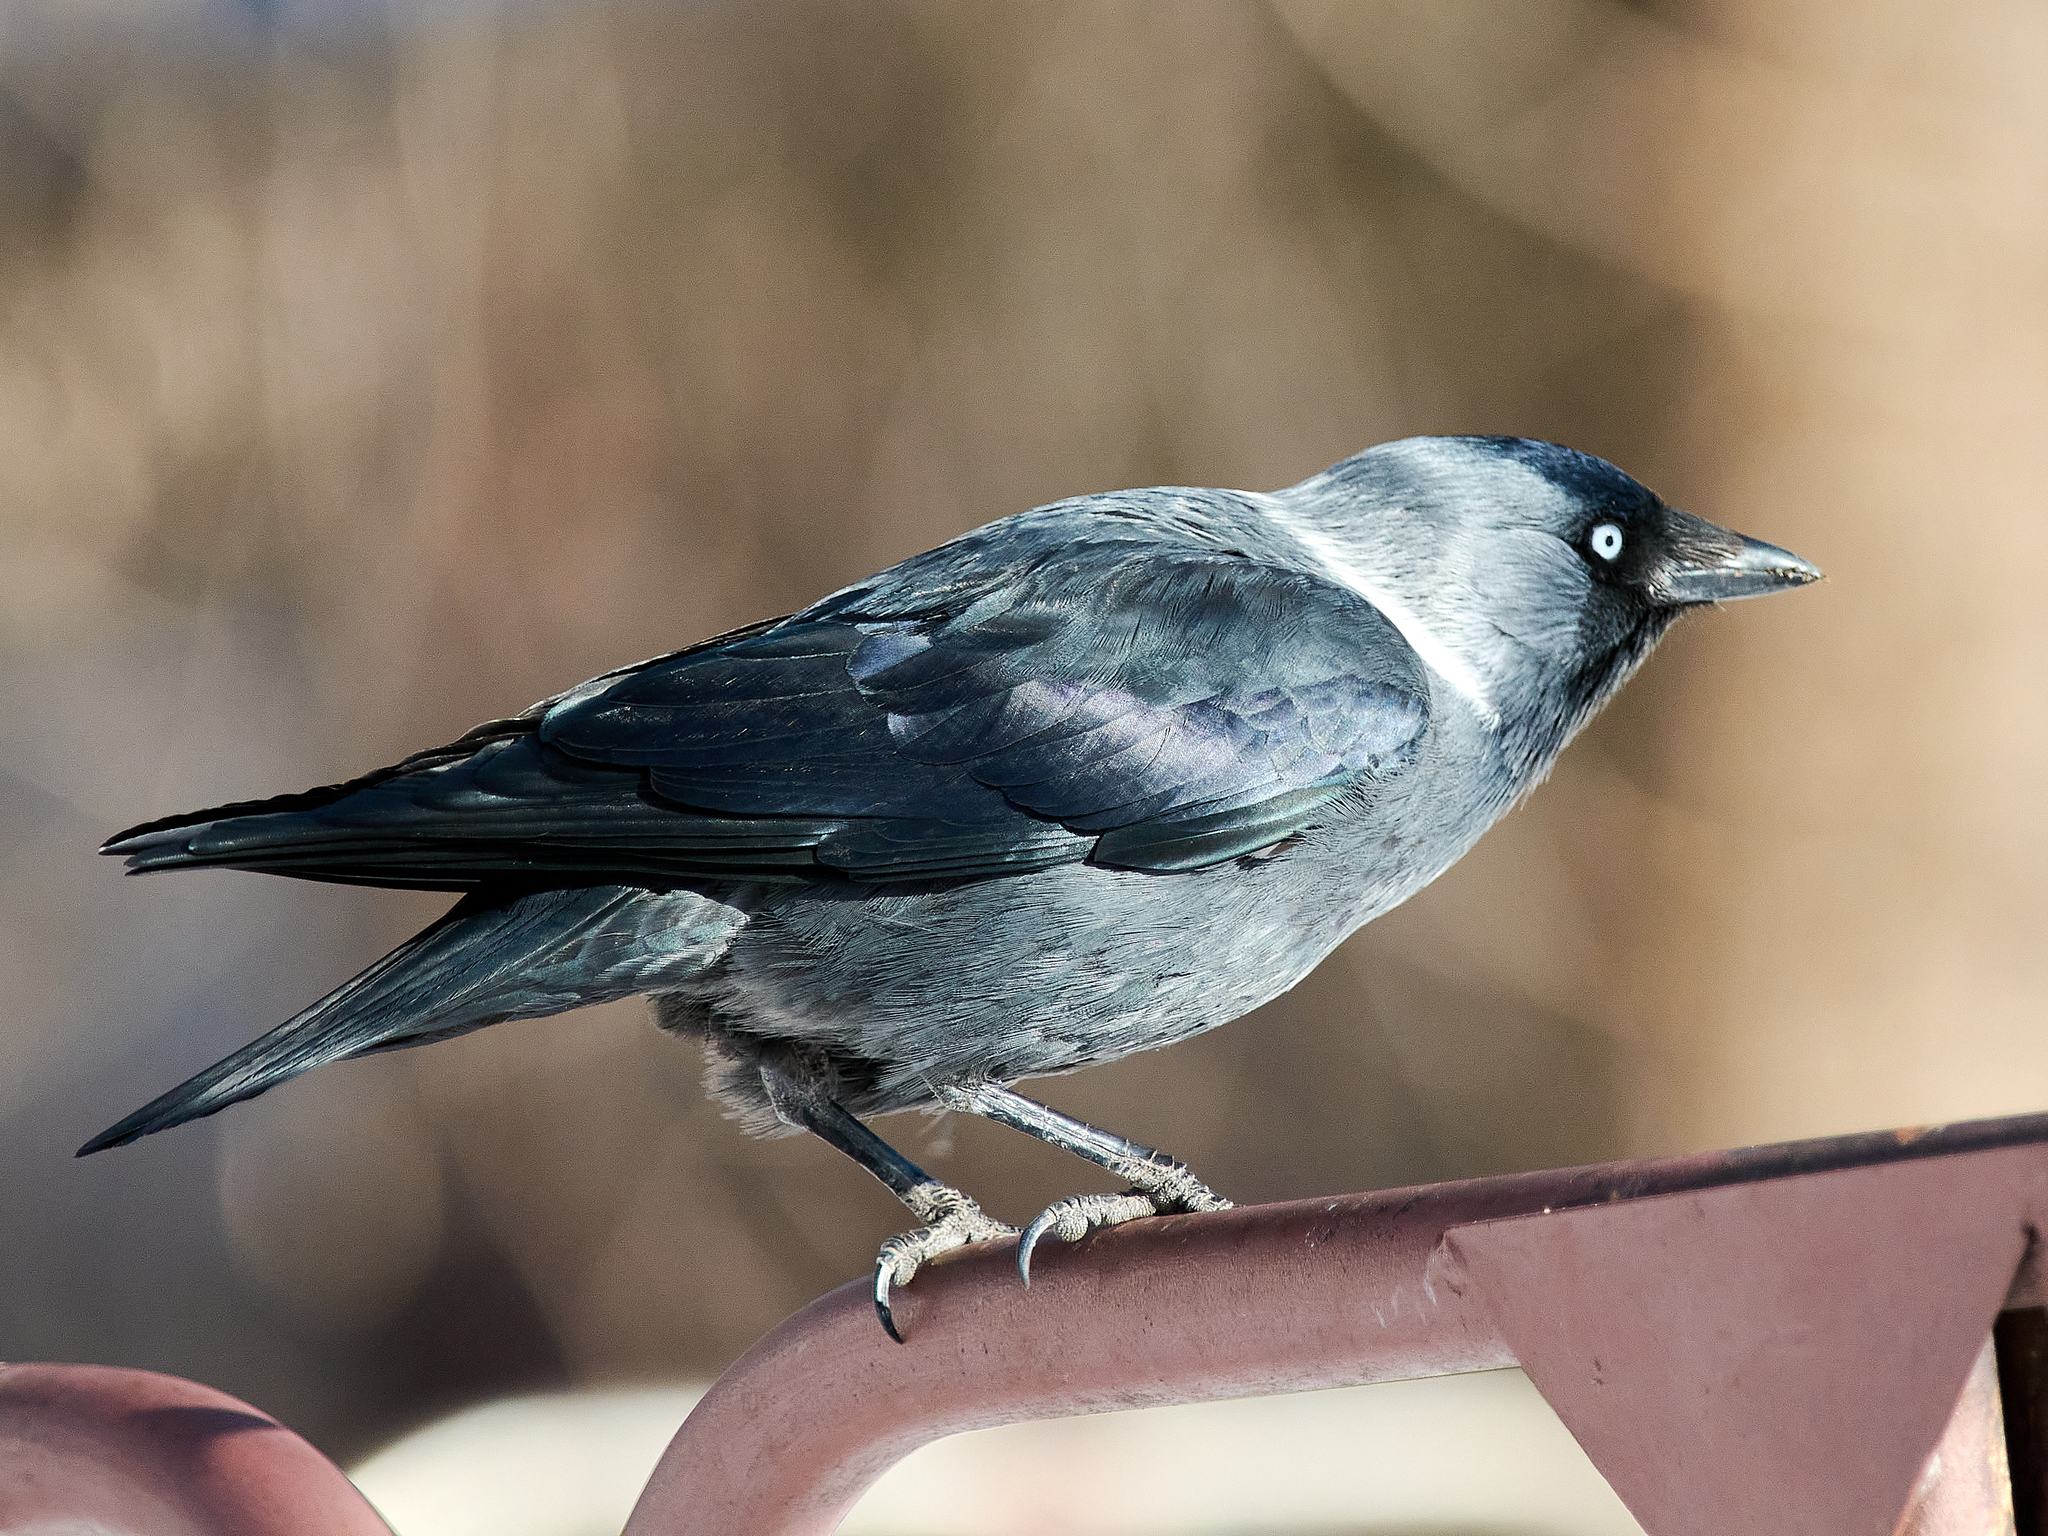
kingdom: Animalia
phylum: Chordata
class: Aves
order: Passeriformes
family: Corvidae
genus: Coloeus
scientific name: Coloeus monedula
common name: Western jackdaw
